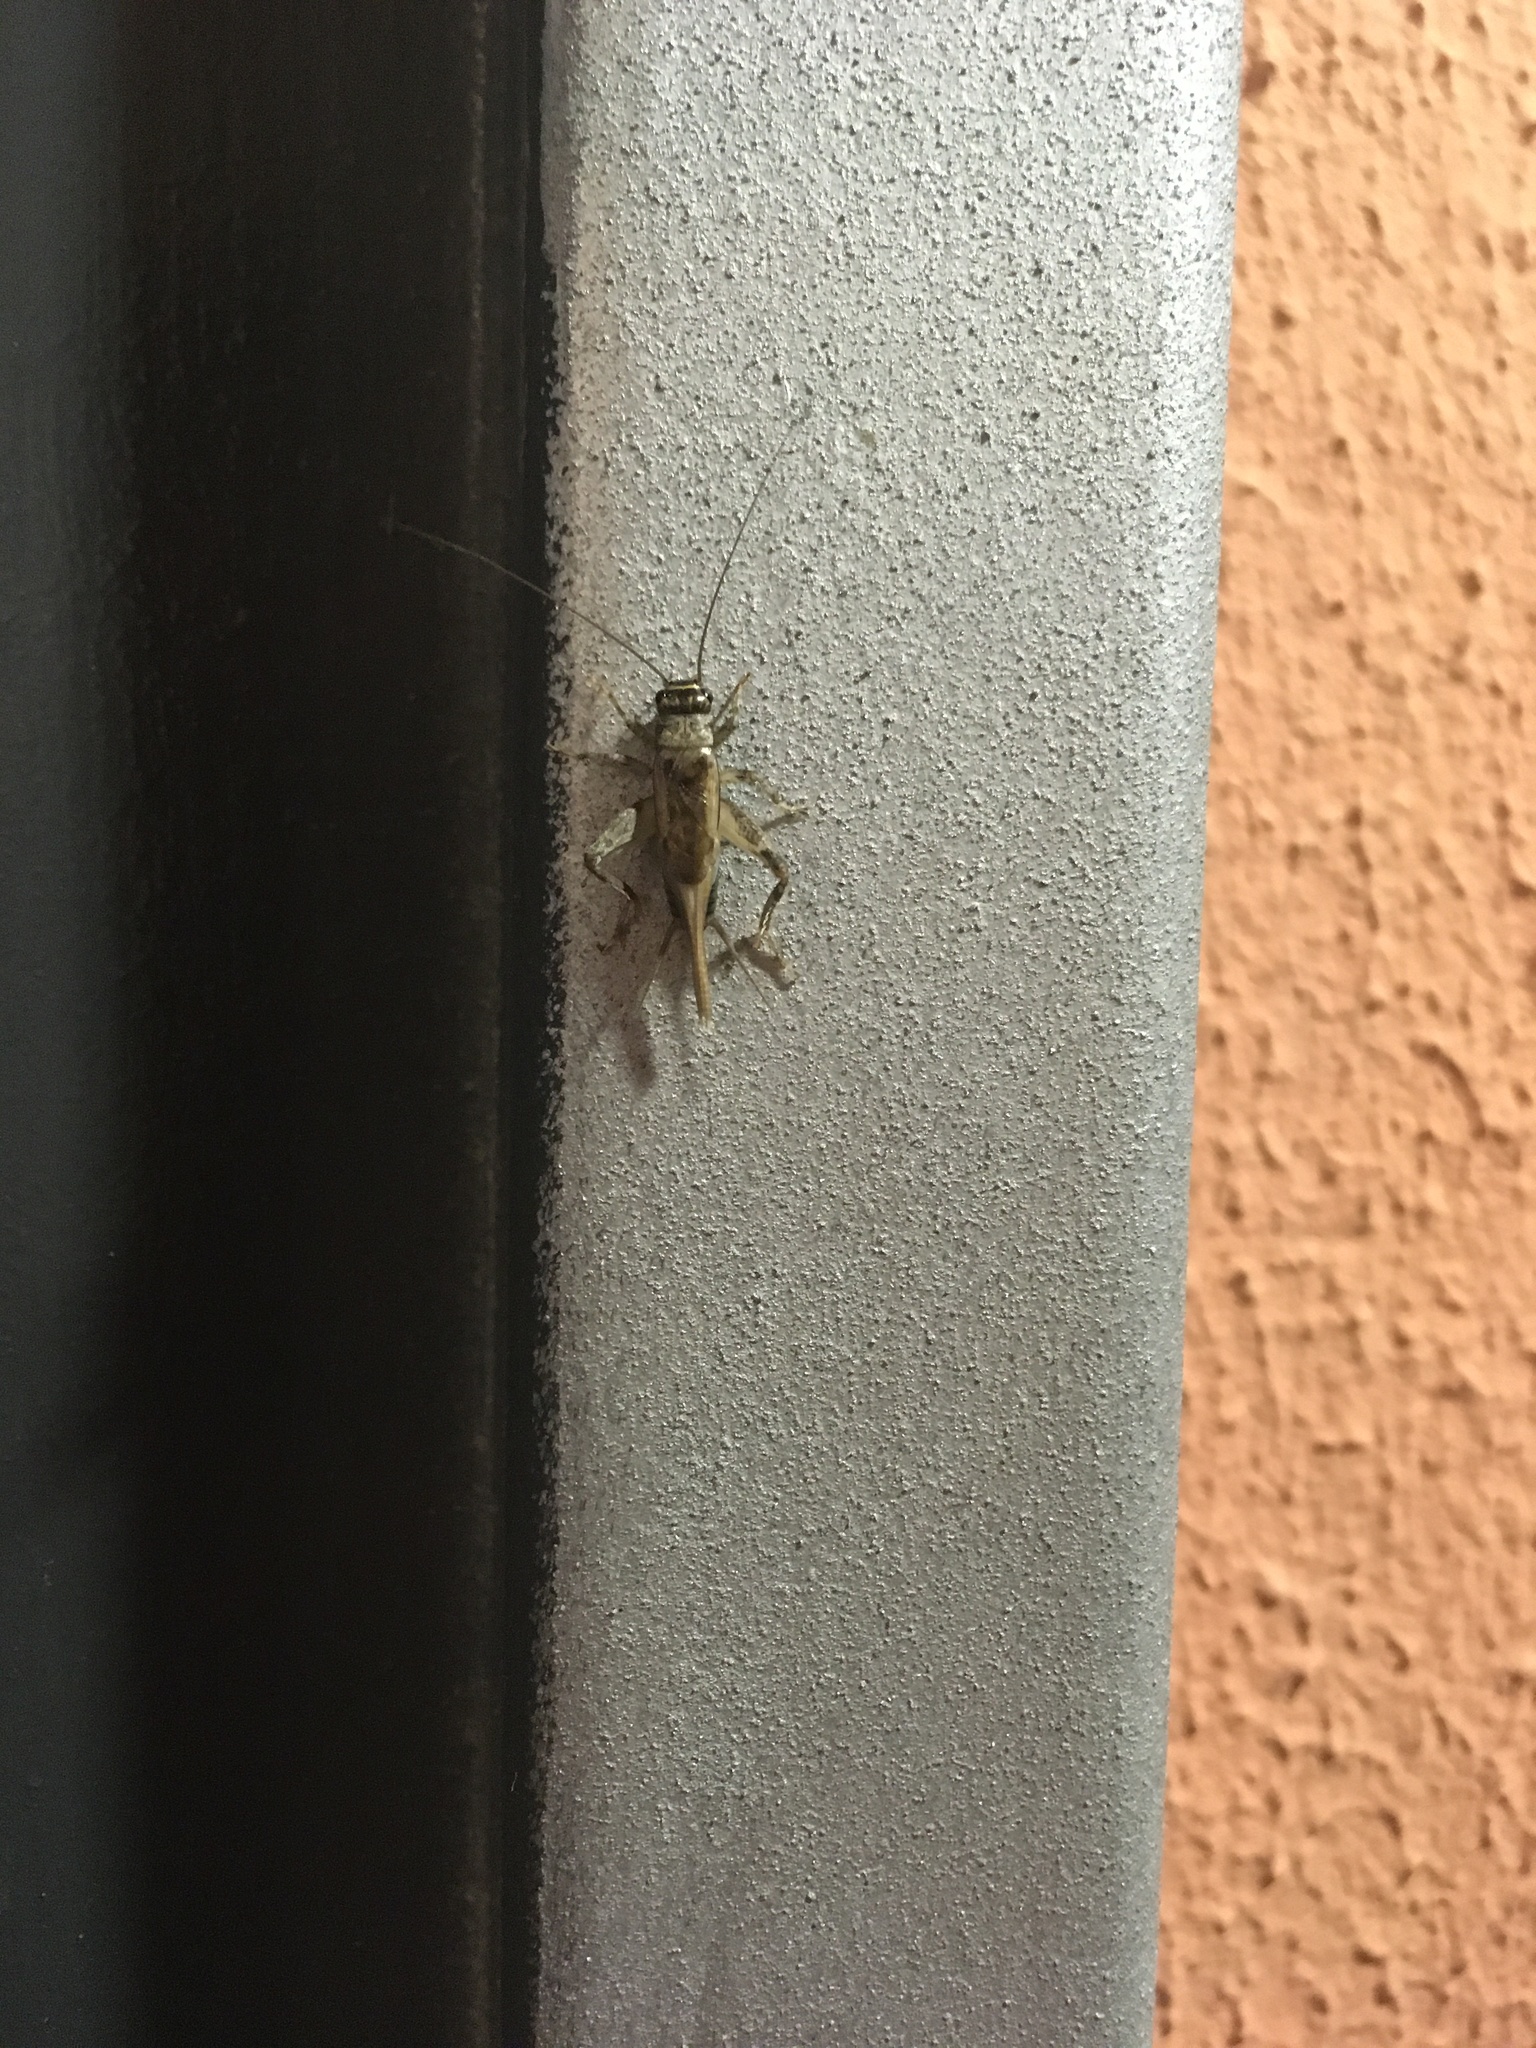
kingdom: Animalia
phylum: Arthropoda
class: Insecta
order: Orthoptera
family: Gryllidae
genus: Acheta
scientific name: Acheta domesticus
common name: House cricket
